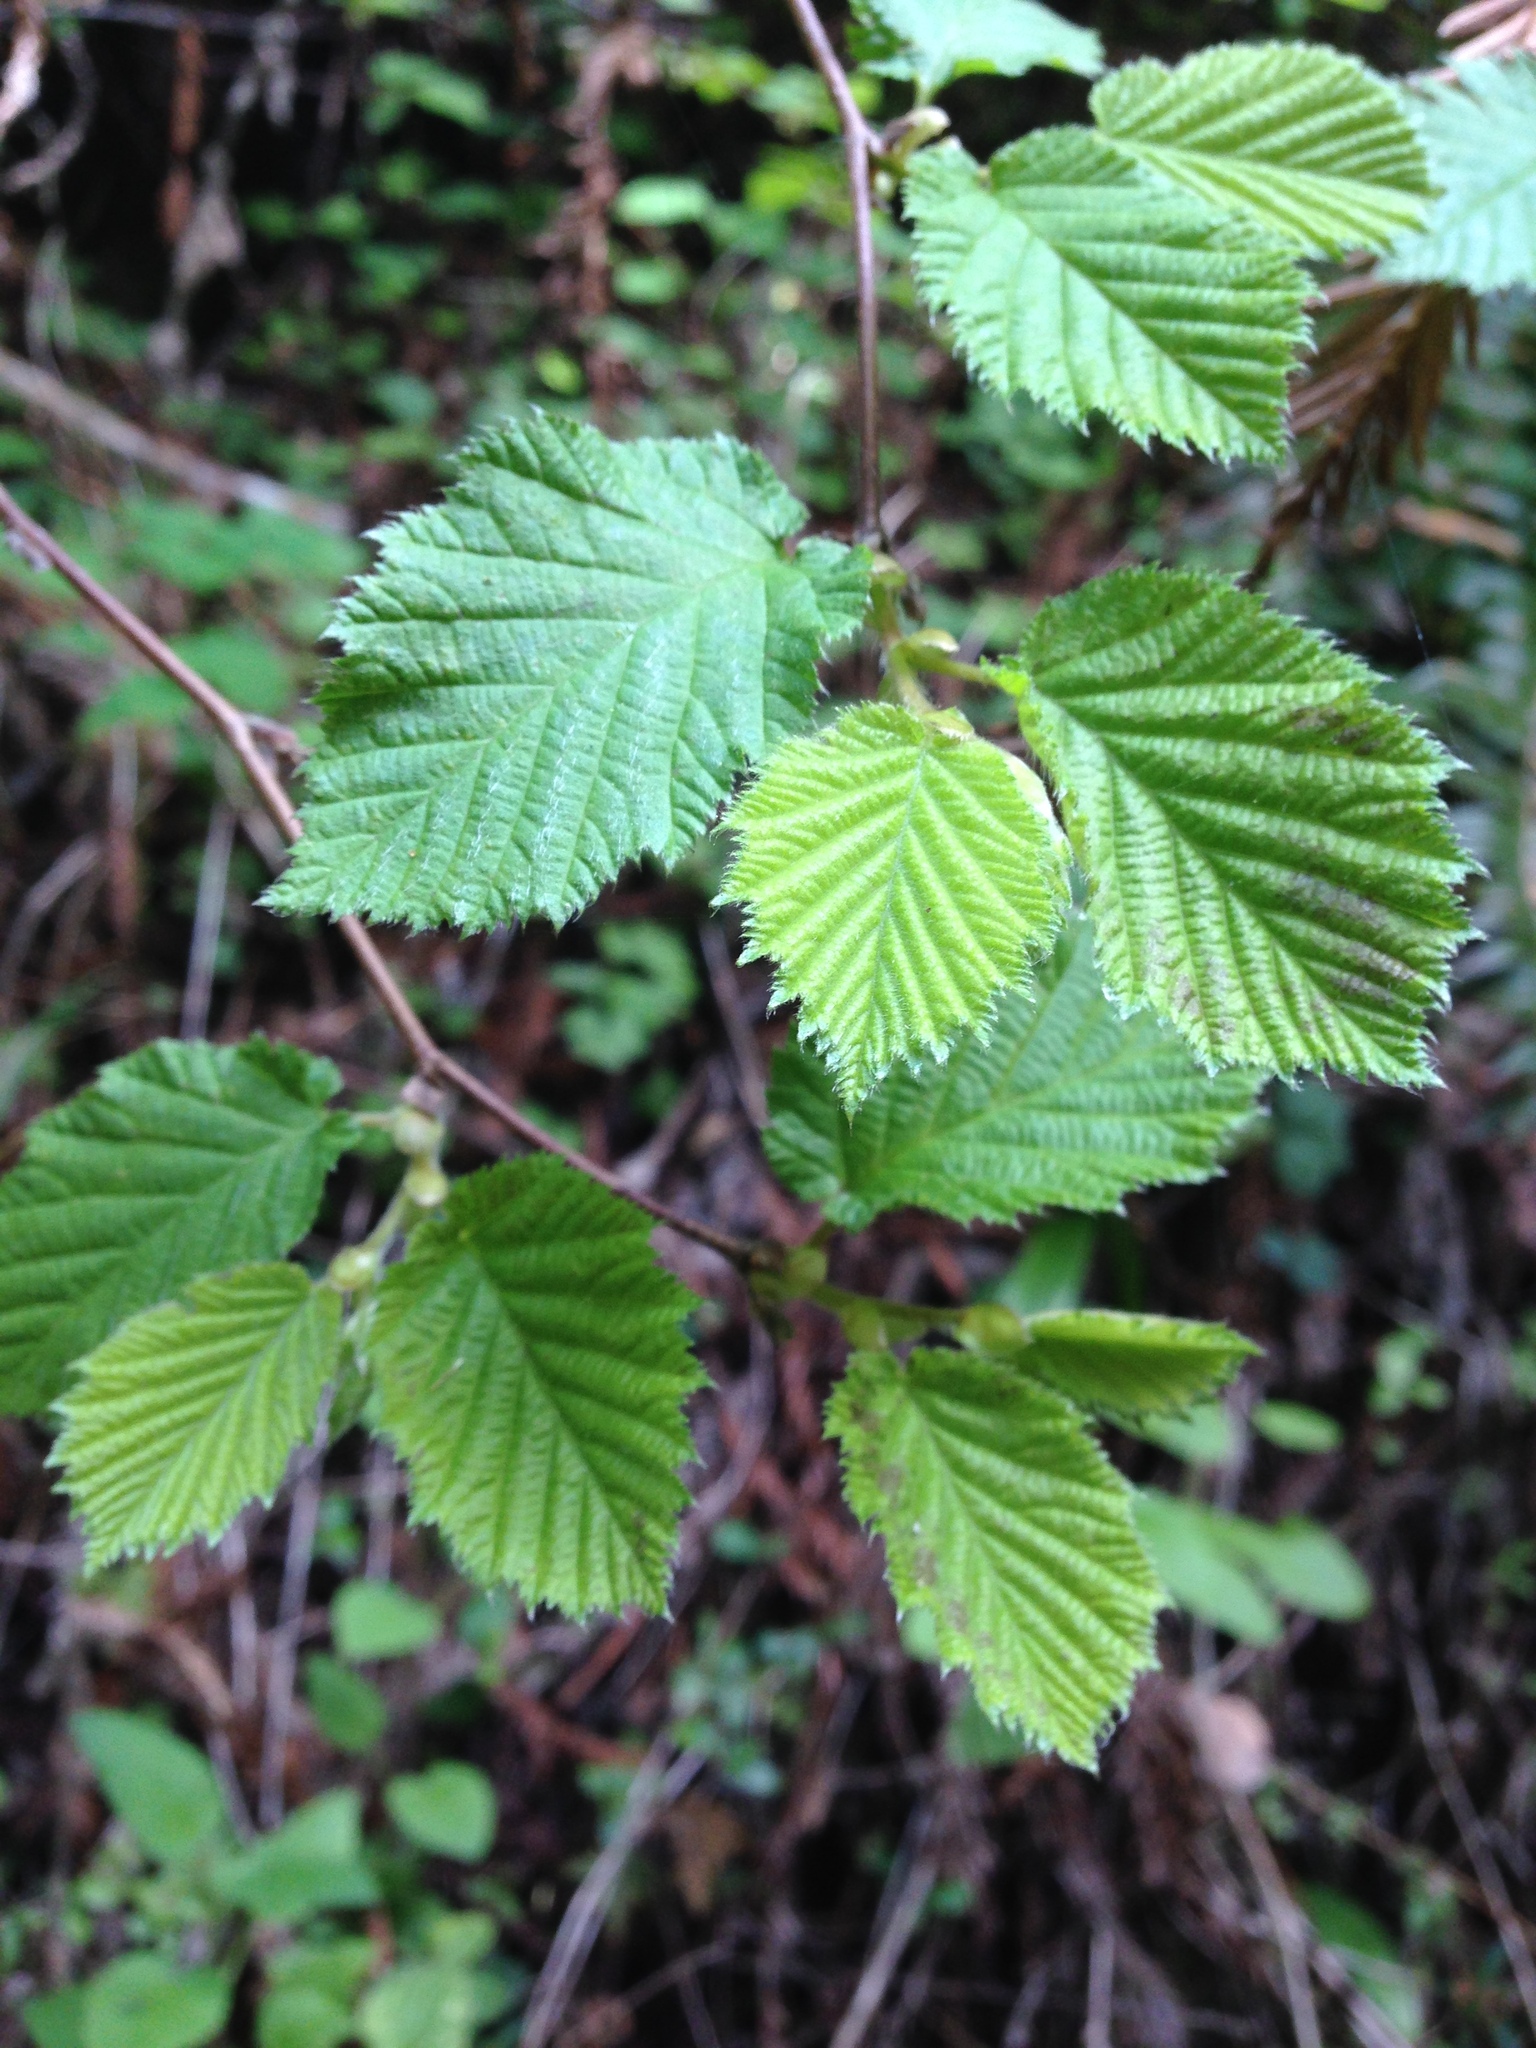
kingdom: Plantae
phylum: Tracheophyta
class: Magnoliopsida
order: Fagales
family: Betulaceae
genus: Corylus
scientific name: Corylus cornuta
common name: Beaked hazel
